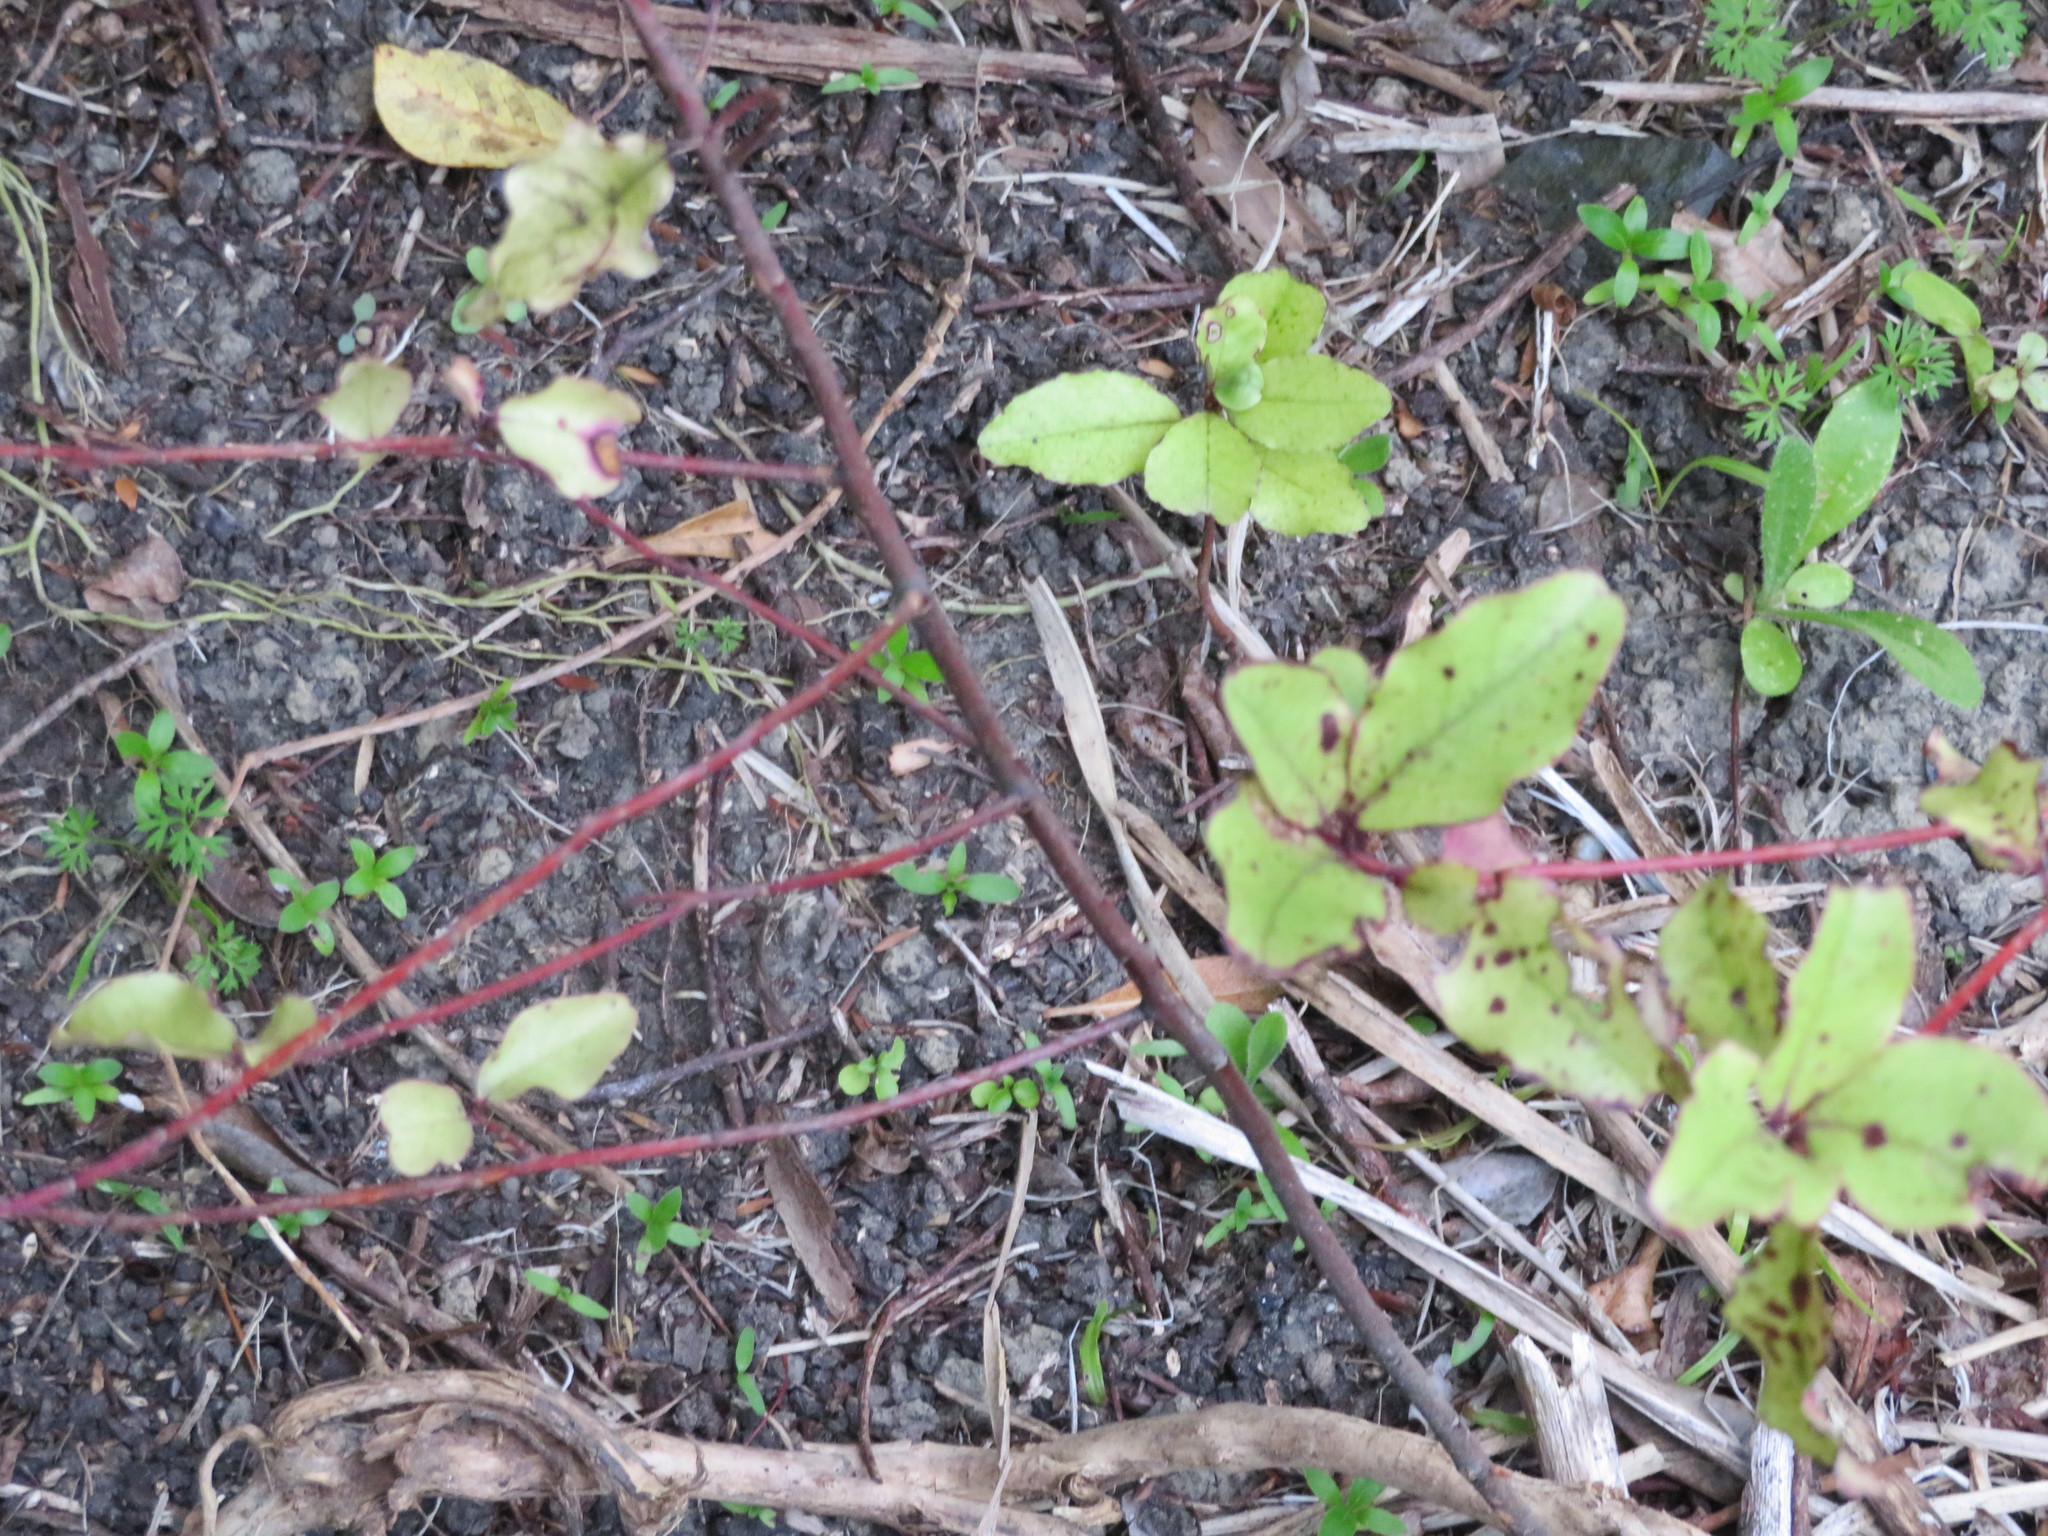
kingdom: Plantae
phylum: Tracheophyta
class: Magnoliopsida
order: Ericales
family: Primulaceae
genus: Myrsine
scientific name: Myrsine australis
